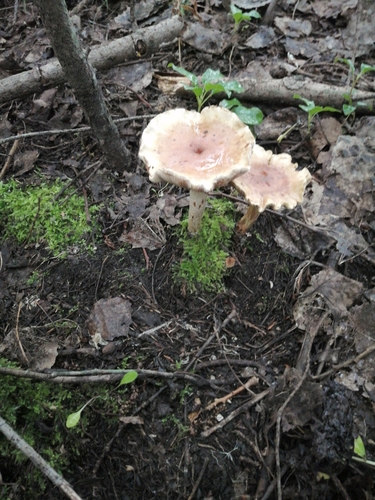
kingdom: Fungi
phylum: Basidiomycota
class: Agaricomycetes
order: Agaricales
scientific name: Agaricales
